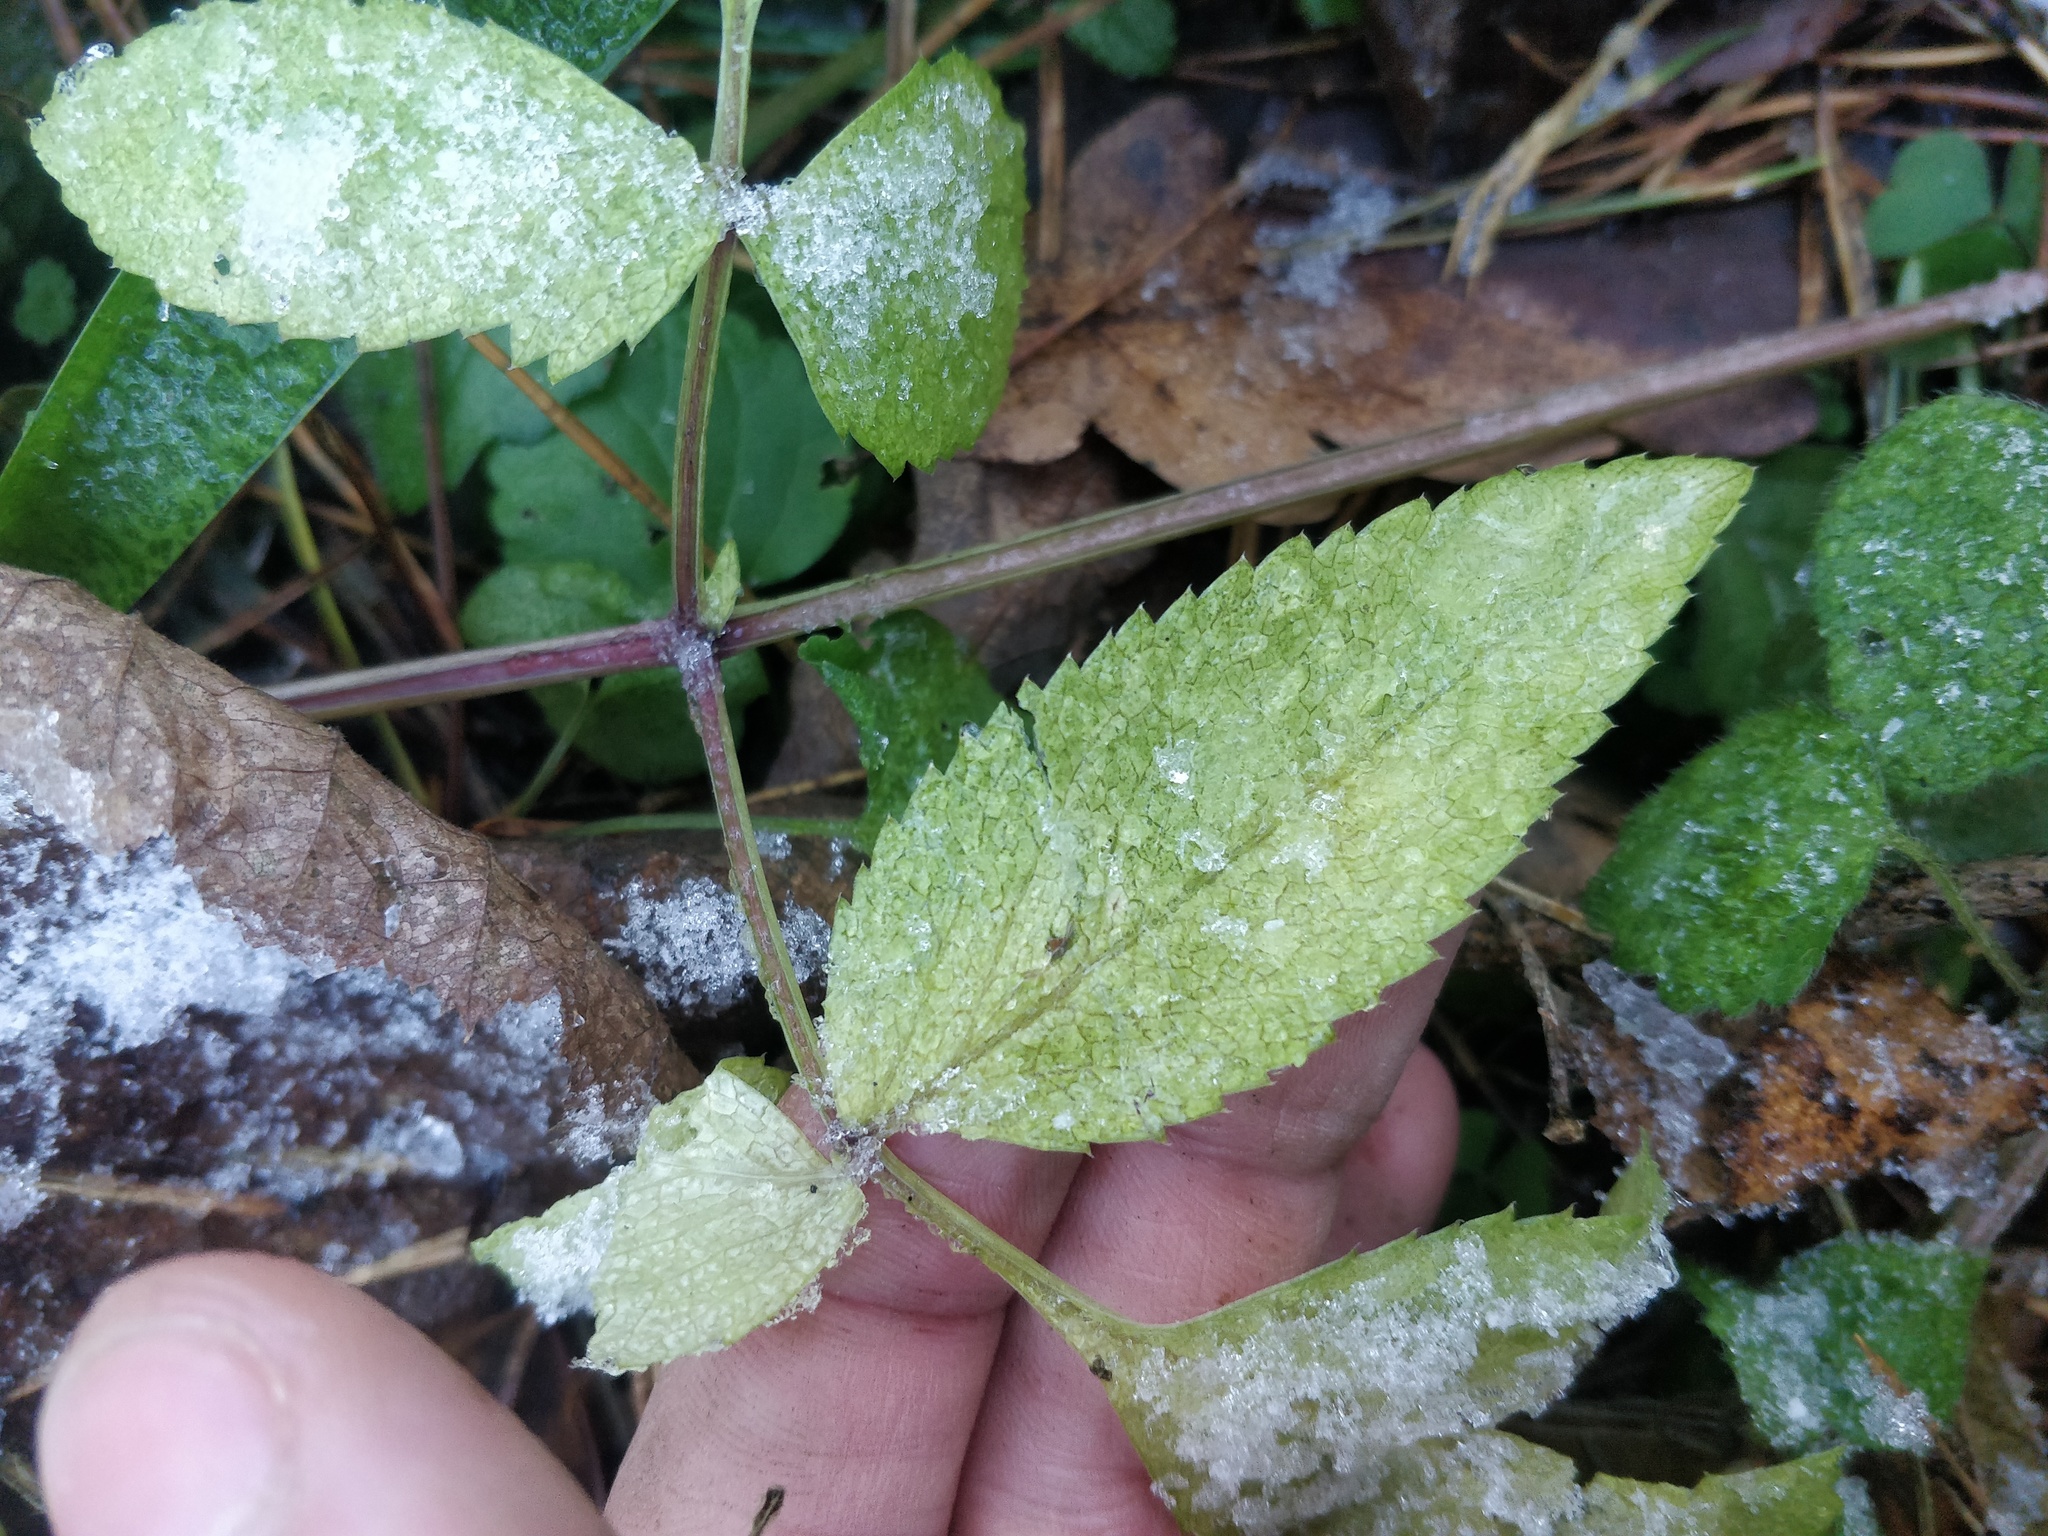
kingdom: Plantae
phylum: Tracheophyta
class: Magnoliopsida
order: Apiales
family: Apiaceae
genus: Angelica
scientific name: Angelica sylvestris
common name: Wild angelica
